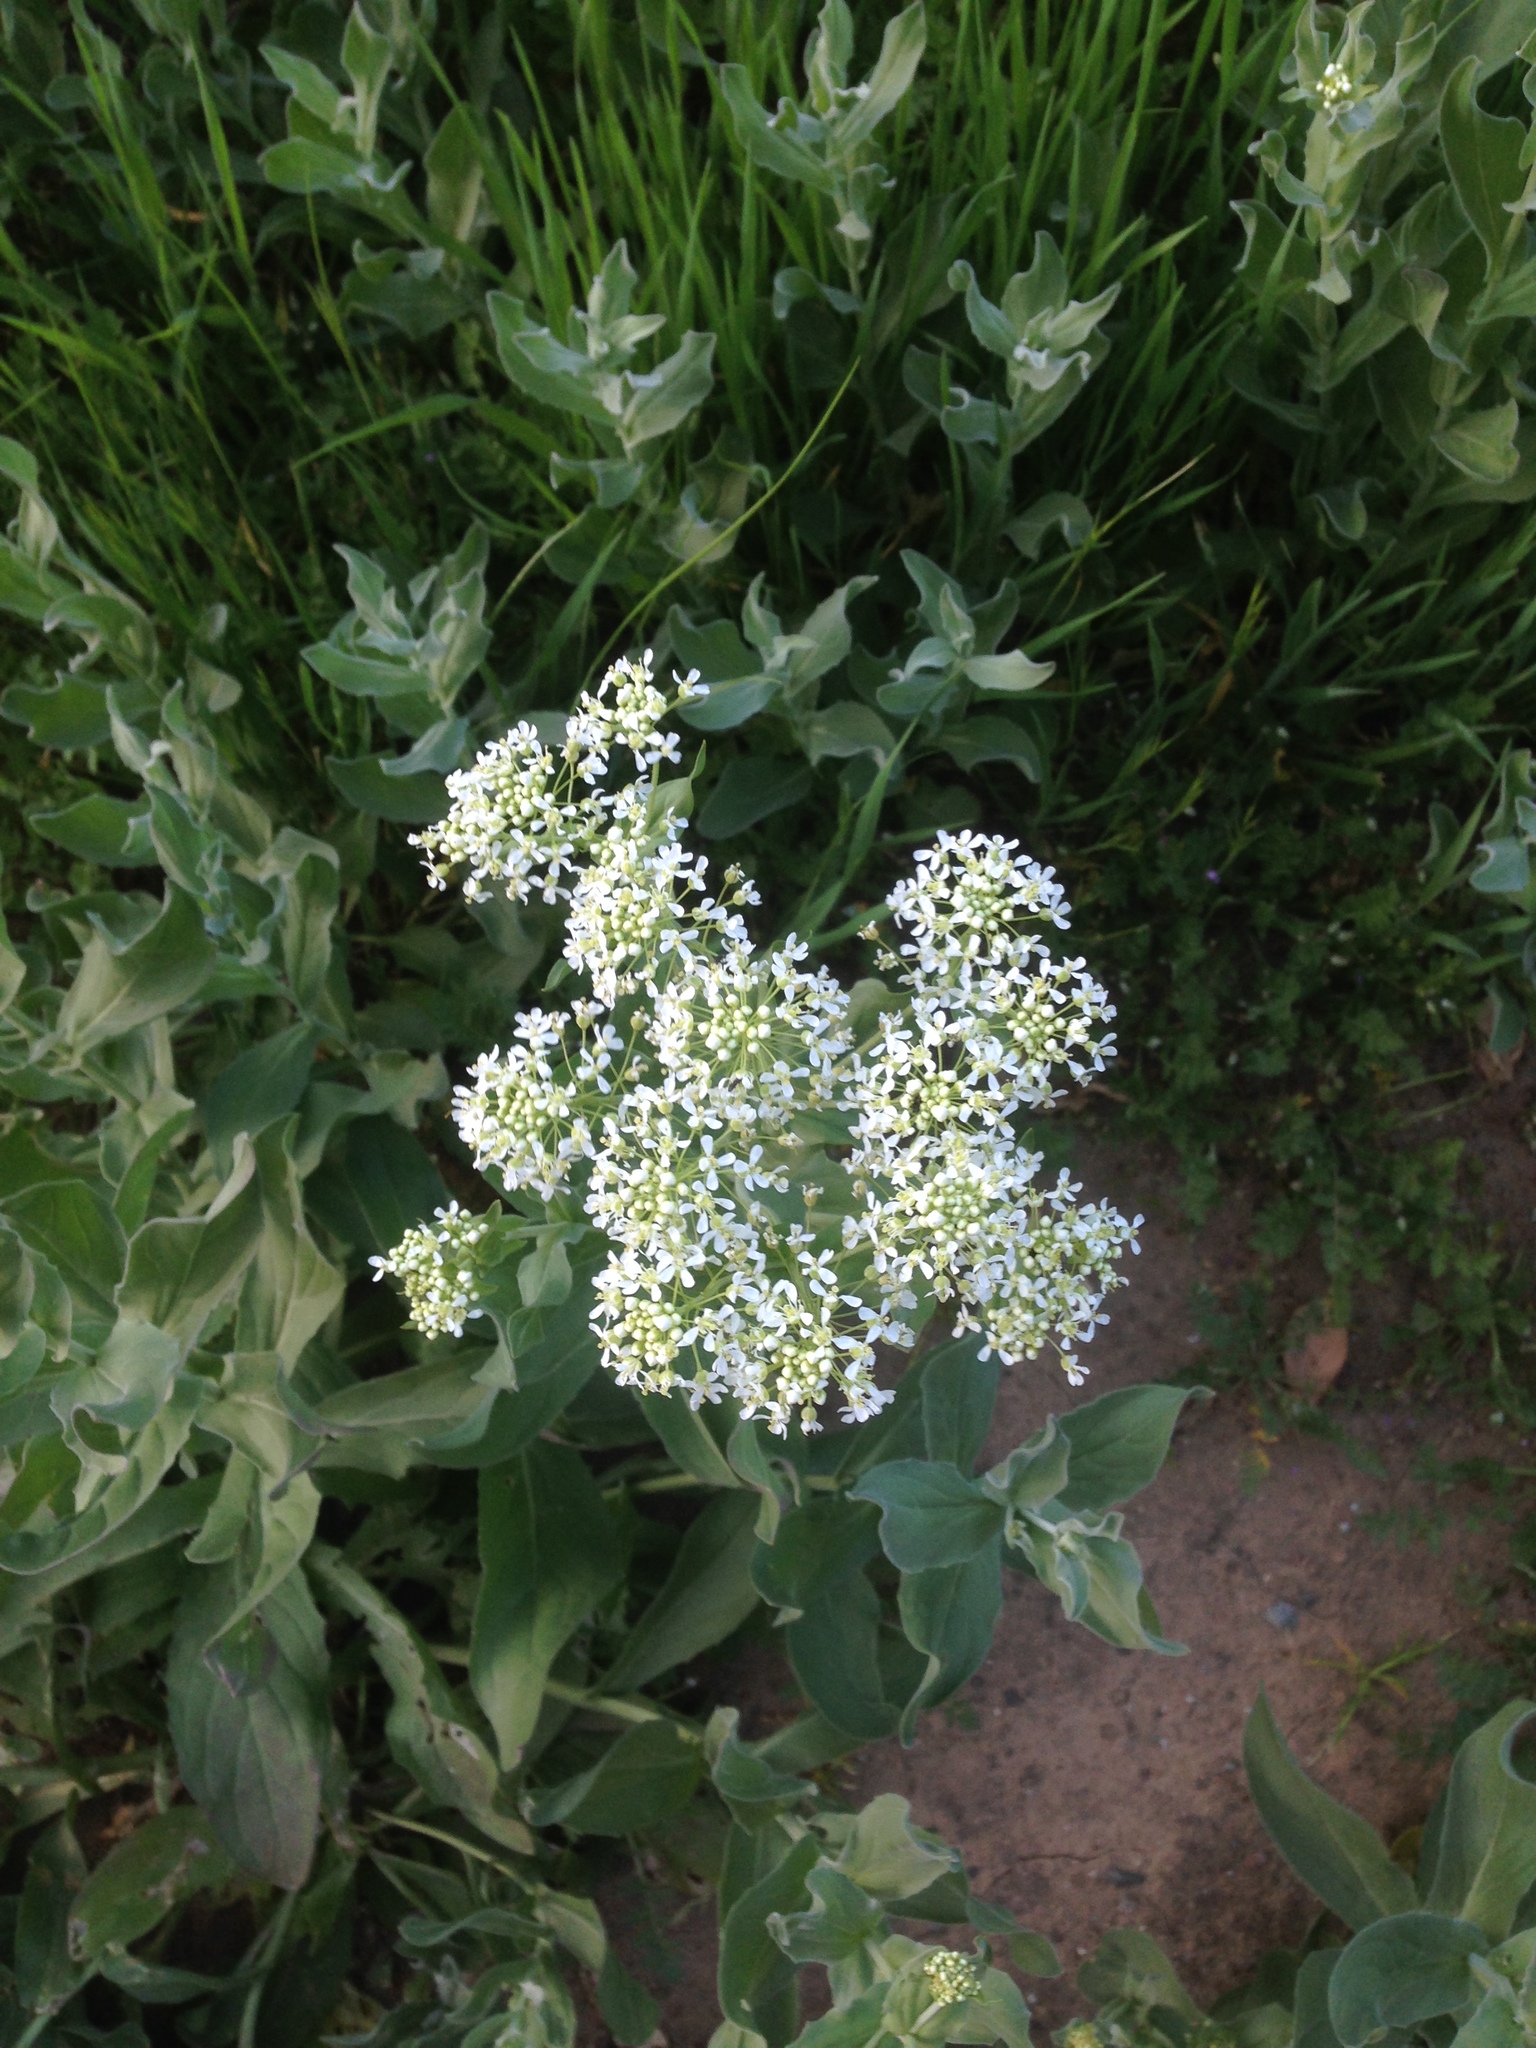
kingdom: Plantae
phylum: Tracheophyta
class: Magnoliopsida
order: Brassicales
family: Brassicaceae
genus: Lepidium
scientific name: Lepidium draba
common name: Hoary cress
